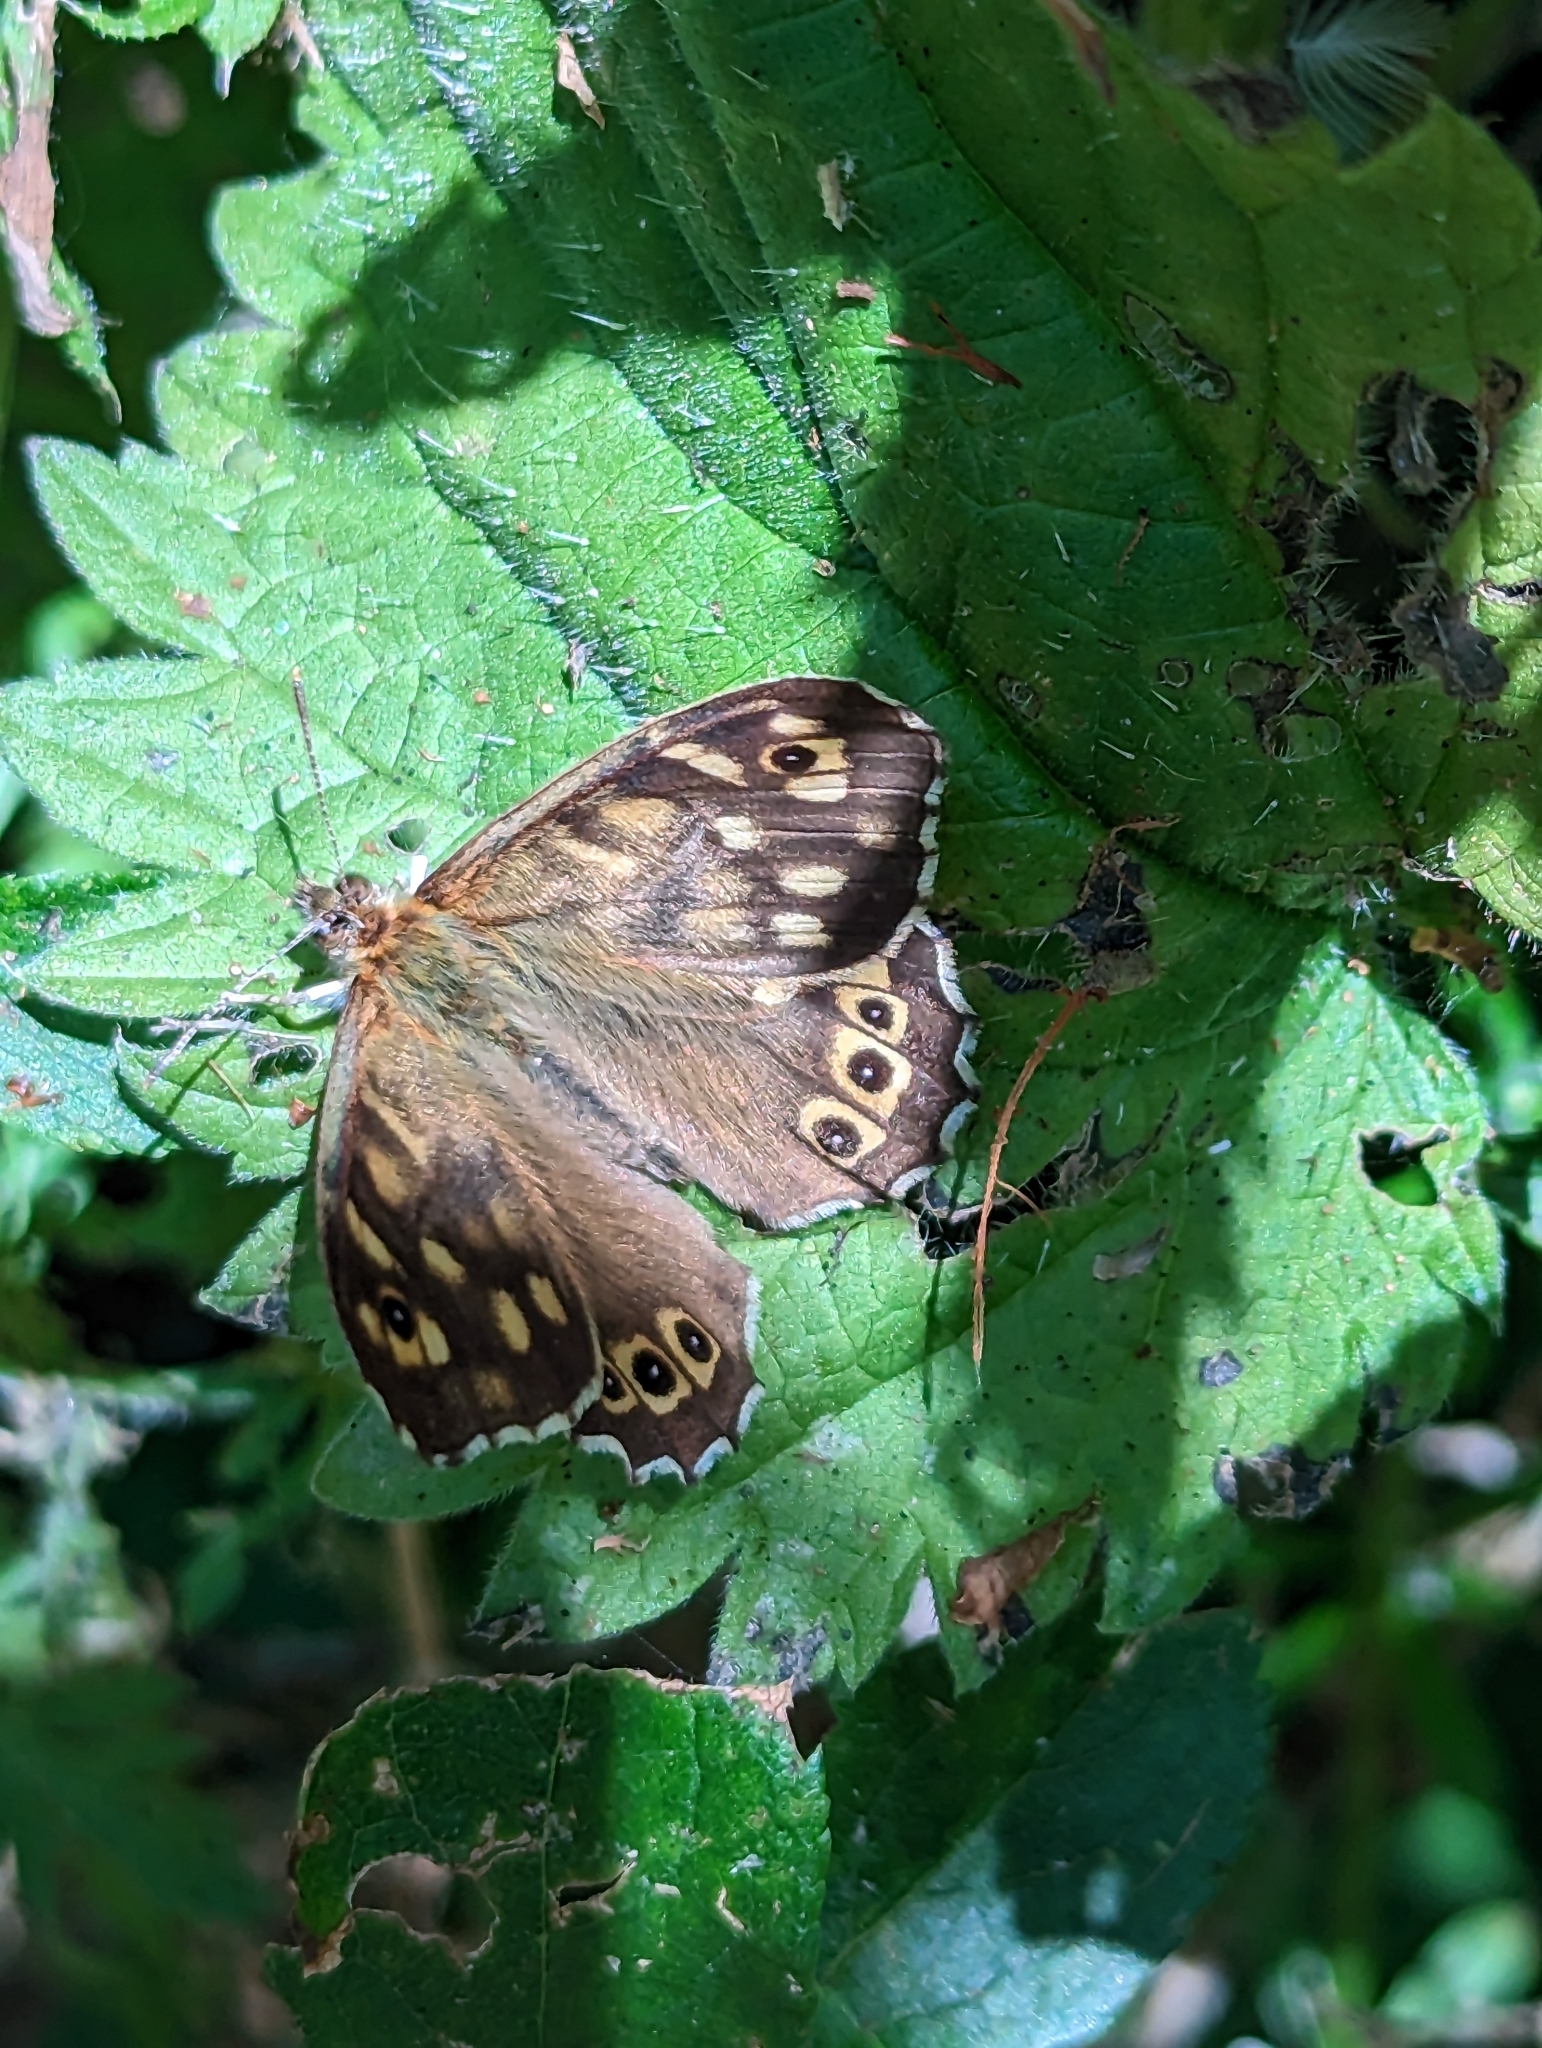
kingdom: Animalia
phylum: Arthropoda
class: Insecta
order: Lepidoptera
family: Nymphalidae
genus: Pararge
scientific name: Pararge aegeria
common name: Speckled wood
